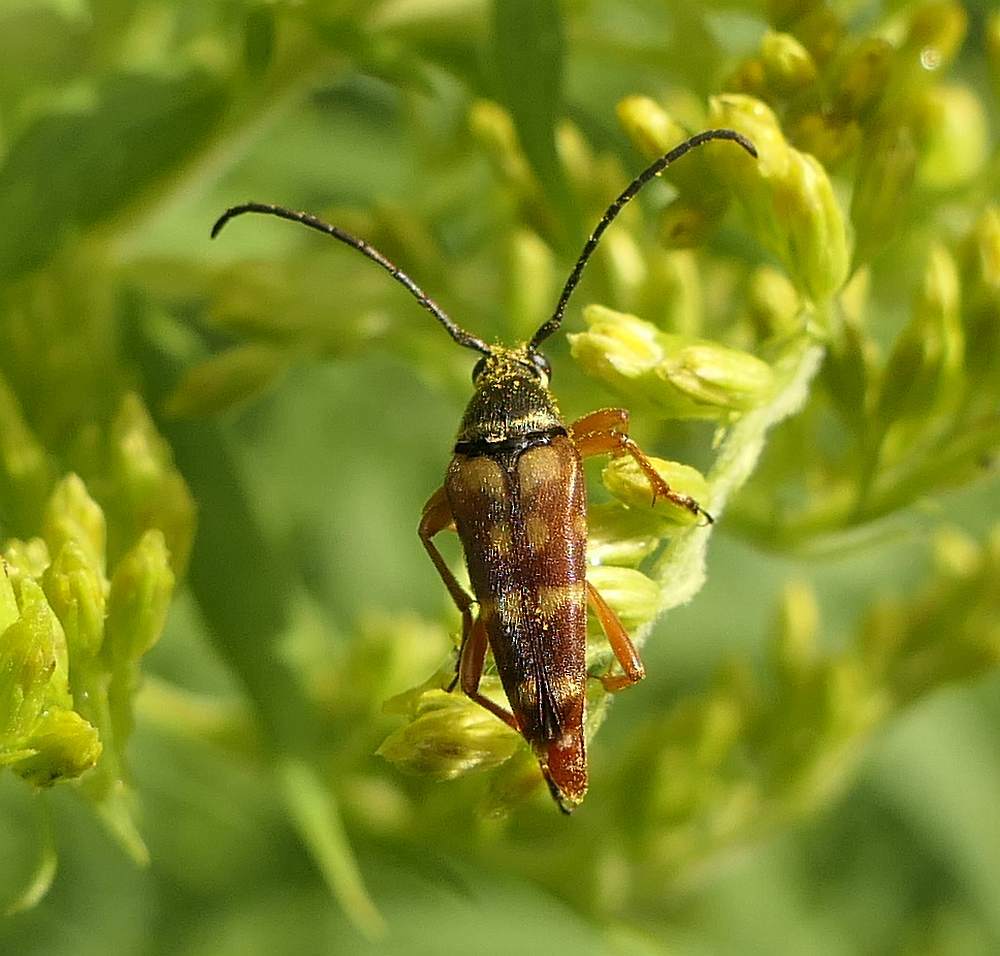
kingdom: Animalia
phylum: Arthropoda
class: Insecta
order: Coleoptera
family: Cerambycidae
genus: Typocerus
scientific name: Typocerus velutinus
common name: Banded longhorn beetle
